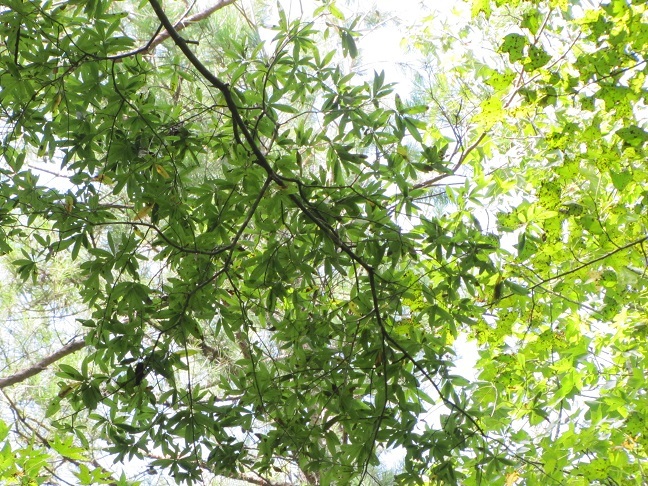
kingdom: Plantae
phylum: Tracheophyta
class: Magnoliopsida
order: Fagales
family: Fagaceae
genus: Quercus
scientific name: Quercus phellos
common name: Willow oak
